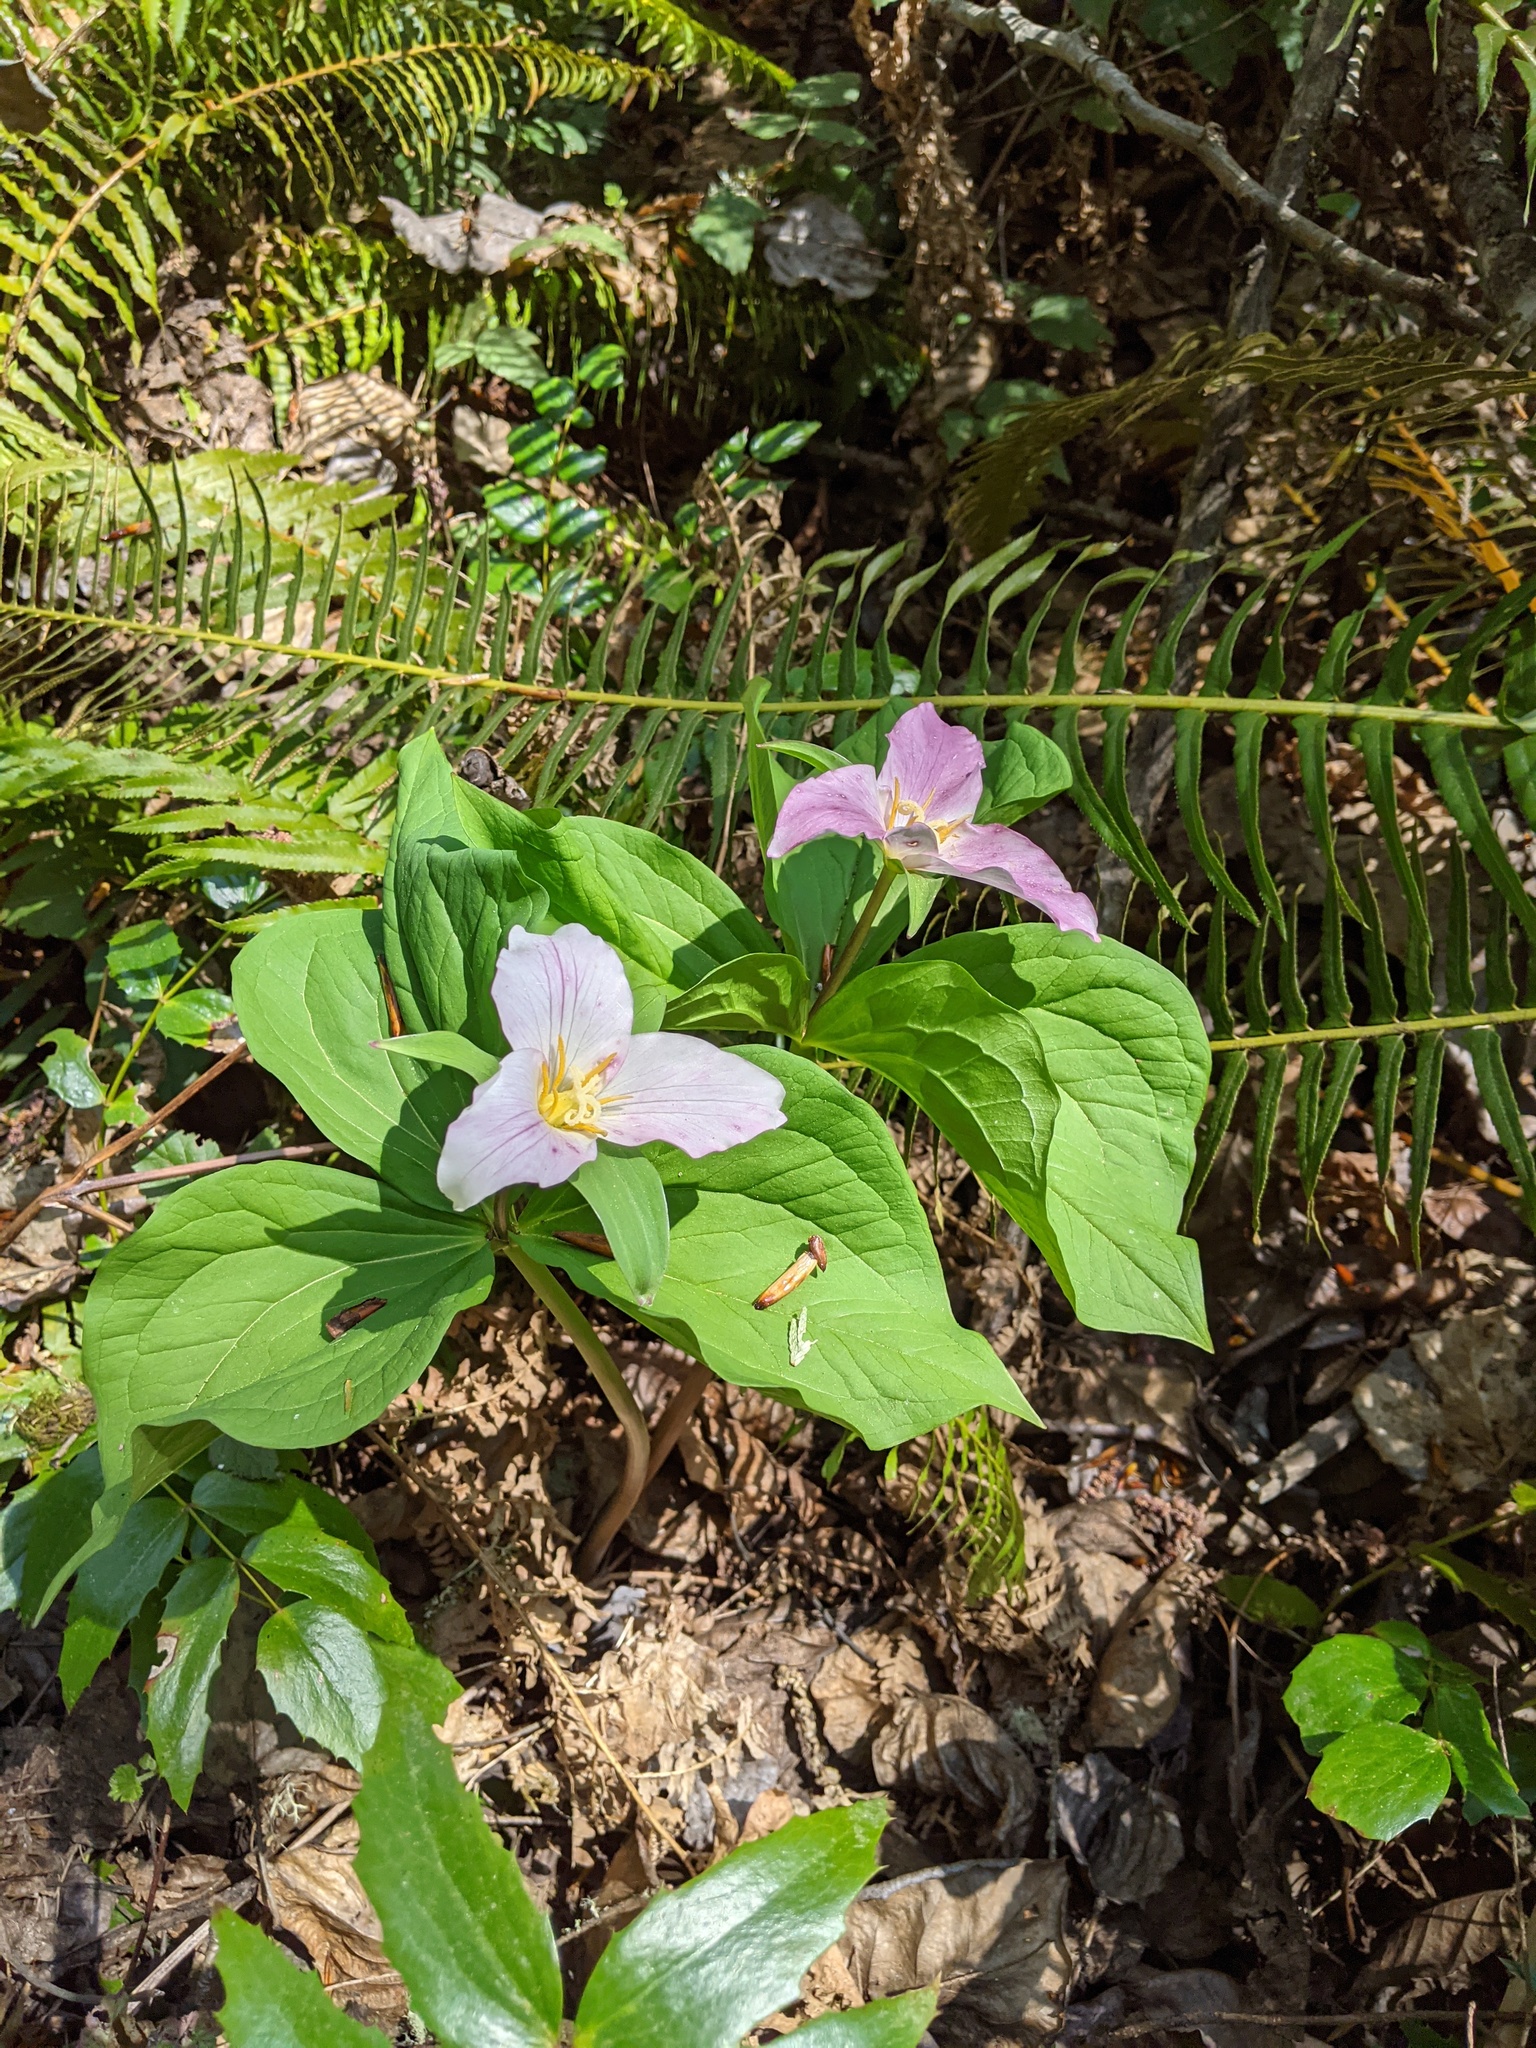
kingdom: Plantae
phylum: Tracheophyta
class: Liliopsida
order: Liliales
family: Melanthiaceae
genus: Trillium
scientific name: Trillium ovatum
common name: Pacific trillium
